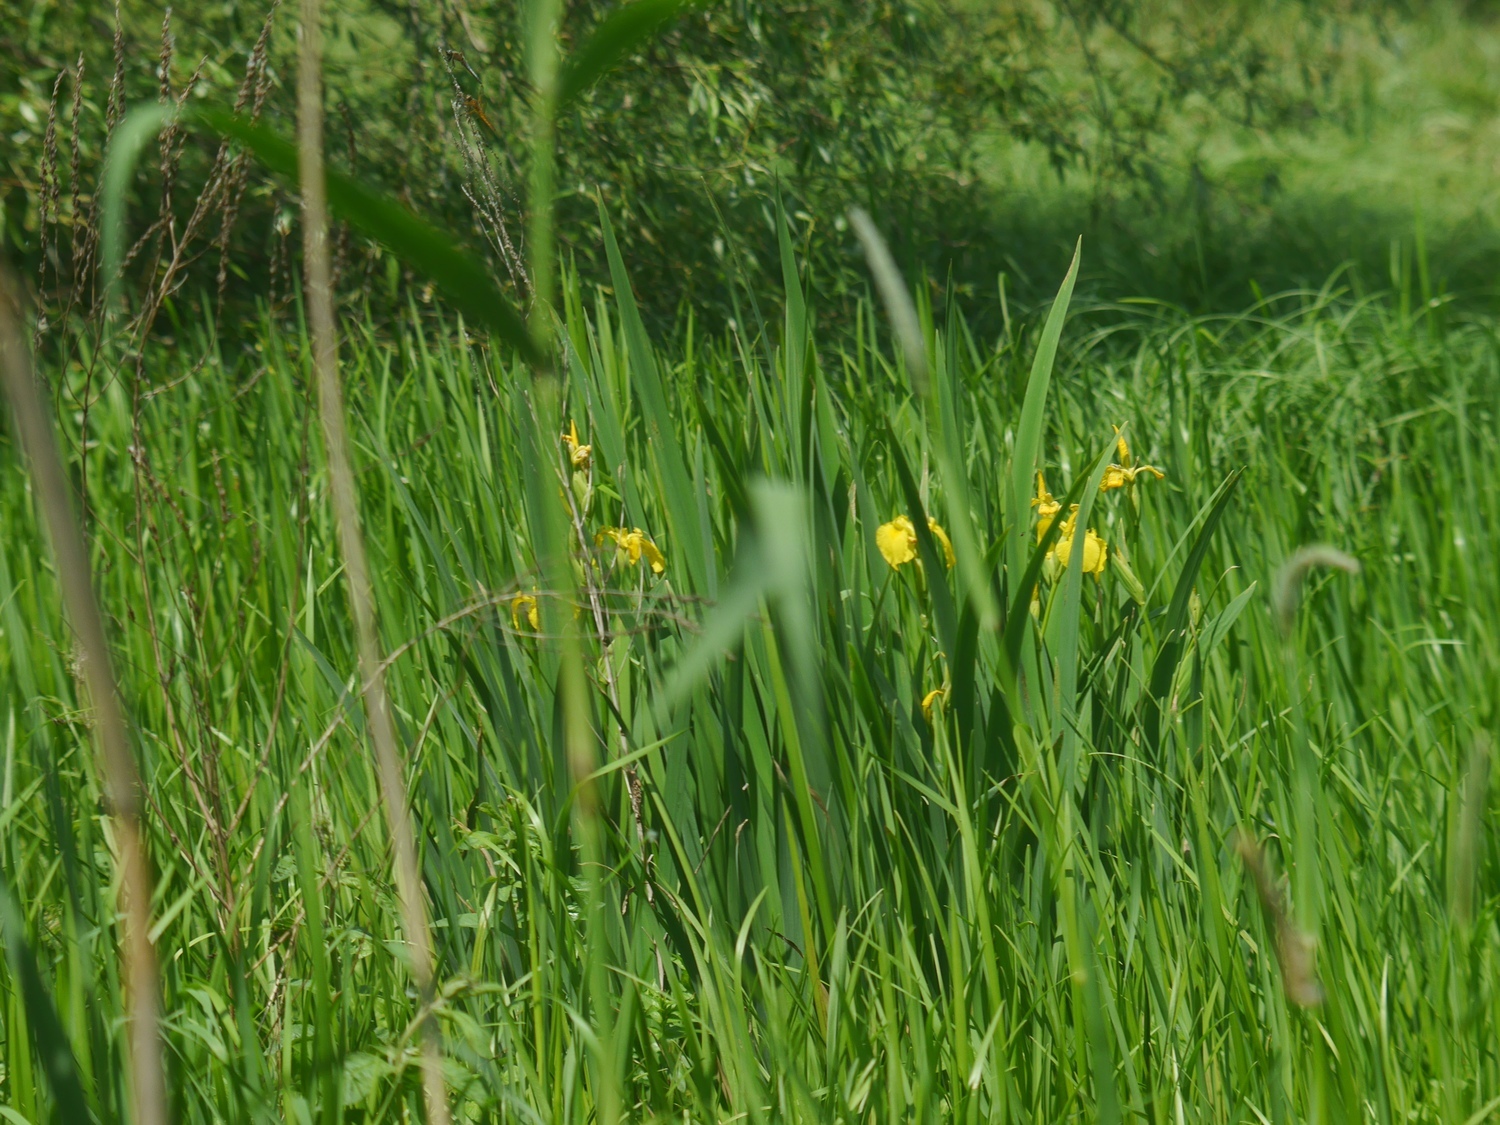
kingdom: Plantae
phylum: Tracheophyta
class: Liliopsida
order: Asparagales
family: Iridaceae
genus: Iris
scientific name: Iris pseudacorus
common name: Yellow flag
